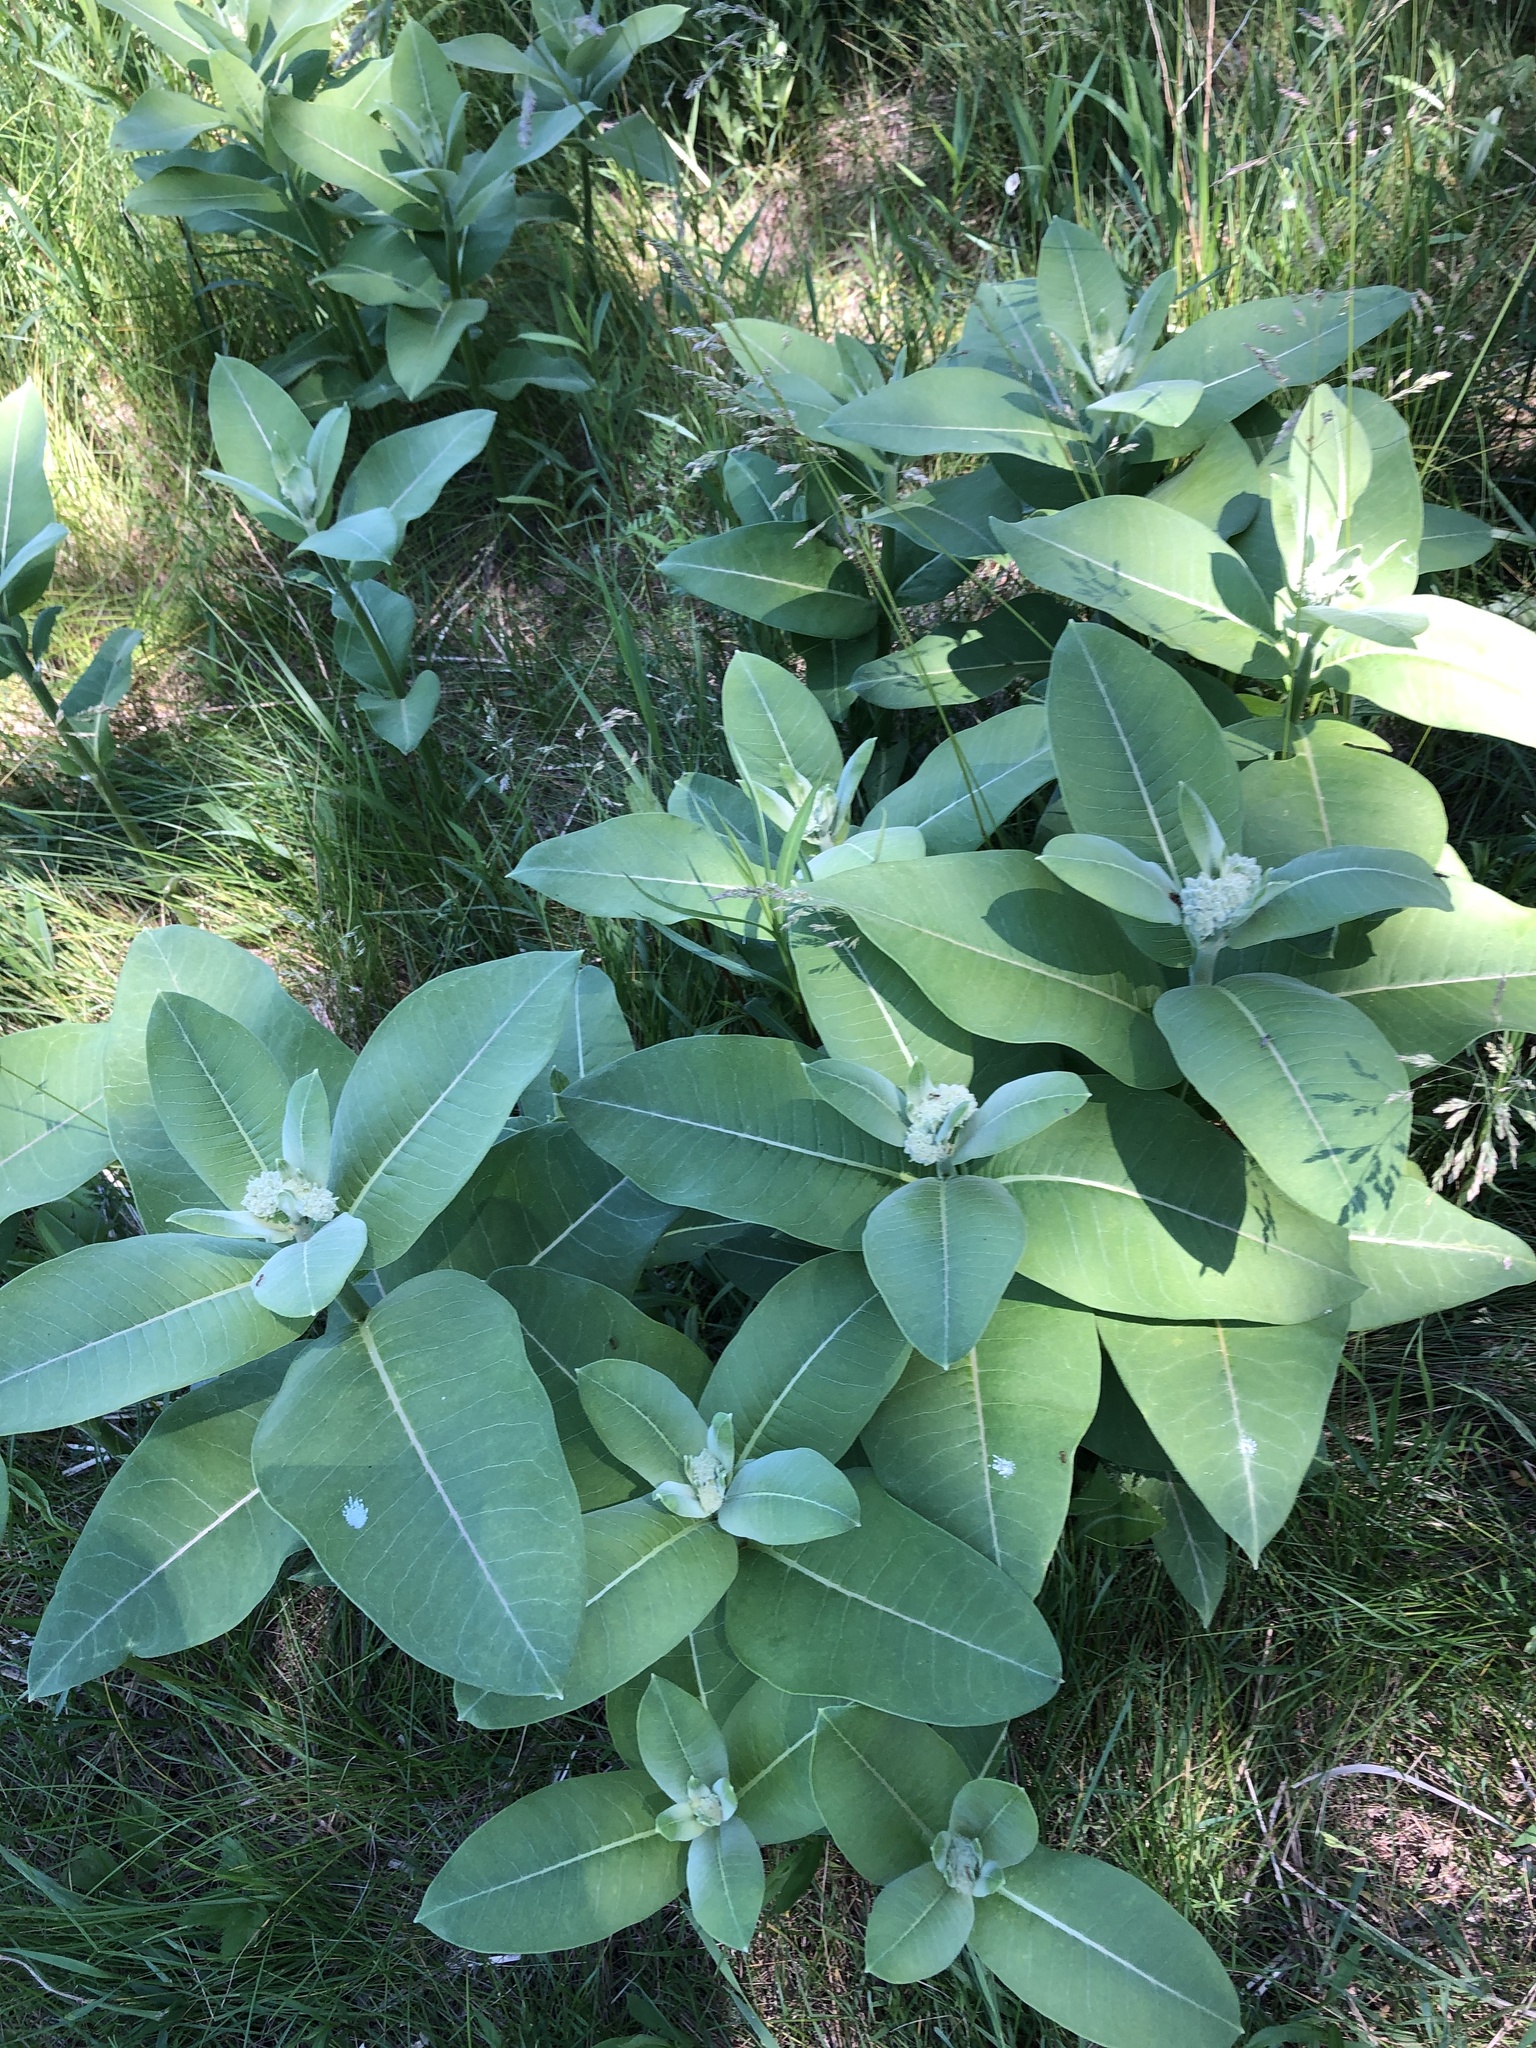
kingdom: Plantae
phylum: Tracheophyta
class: Magnoliopsida
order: Gentianales
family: Apocynaceae
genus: Asclepias
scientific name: Asclepias syriaca
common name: Common milkweed
